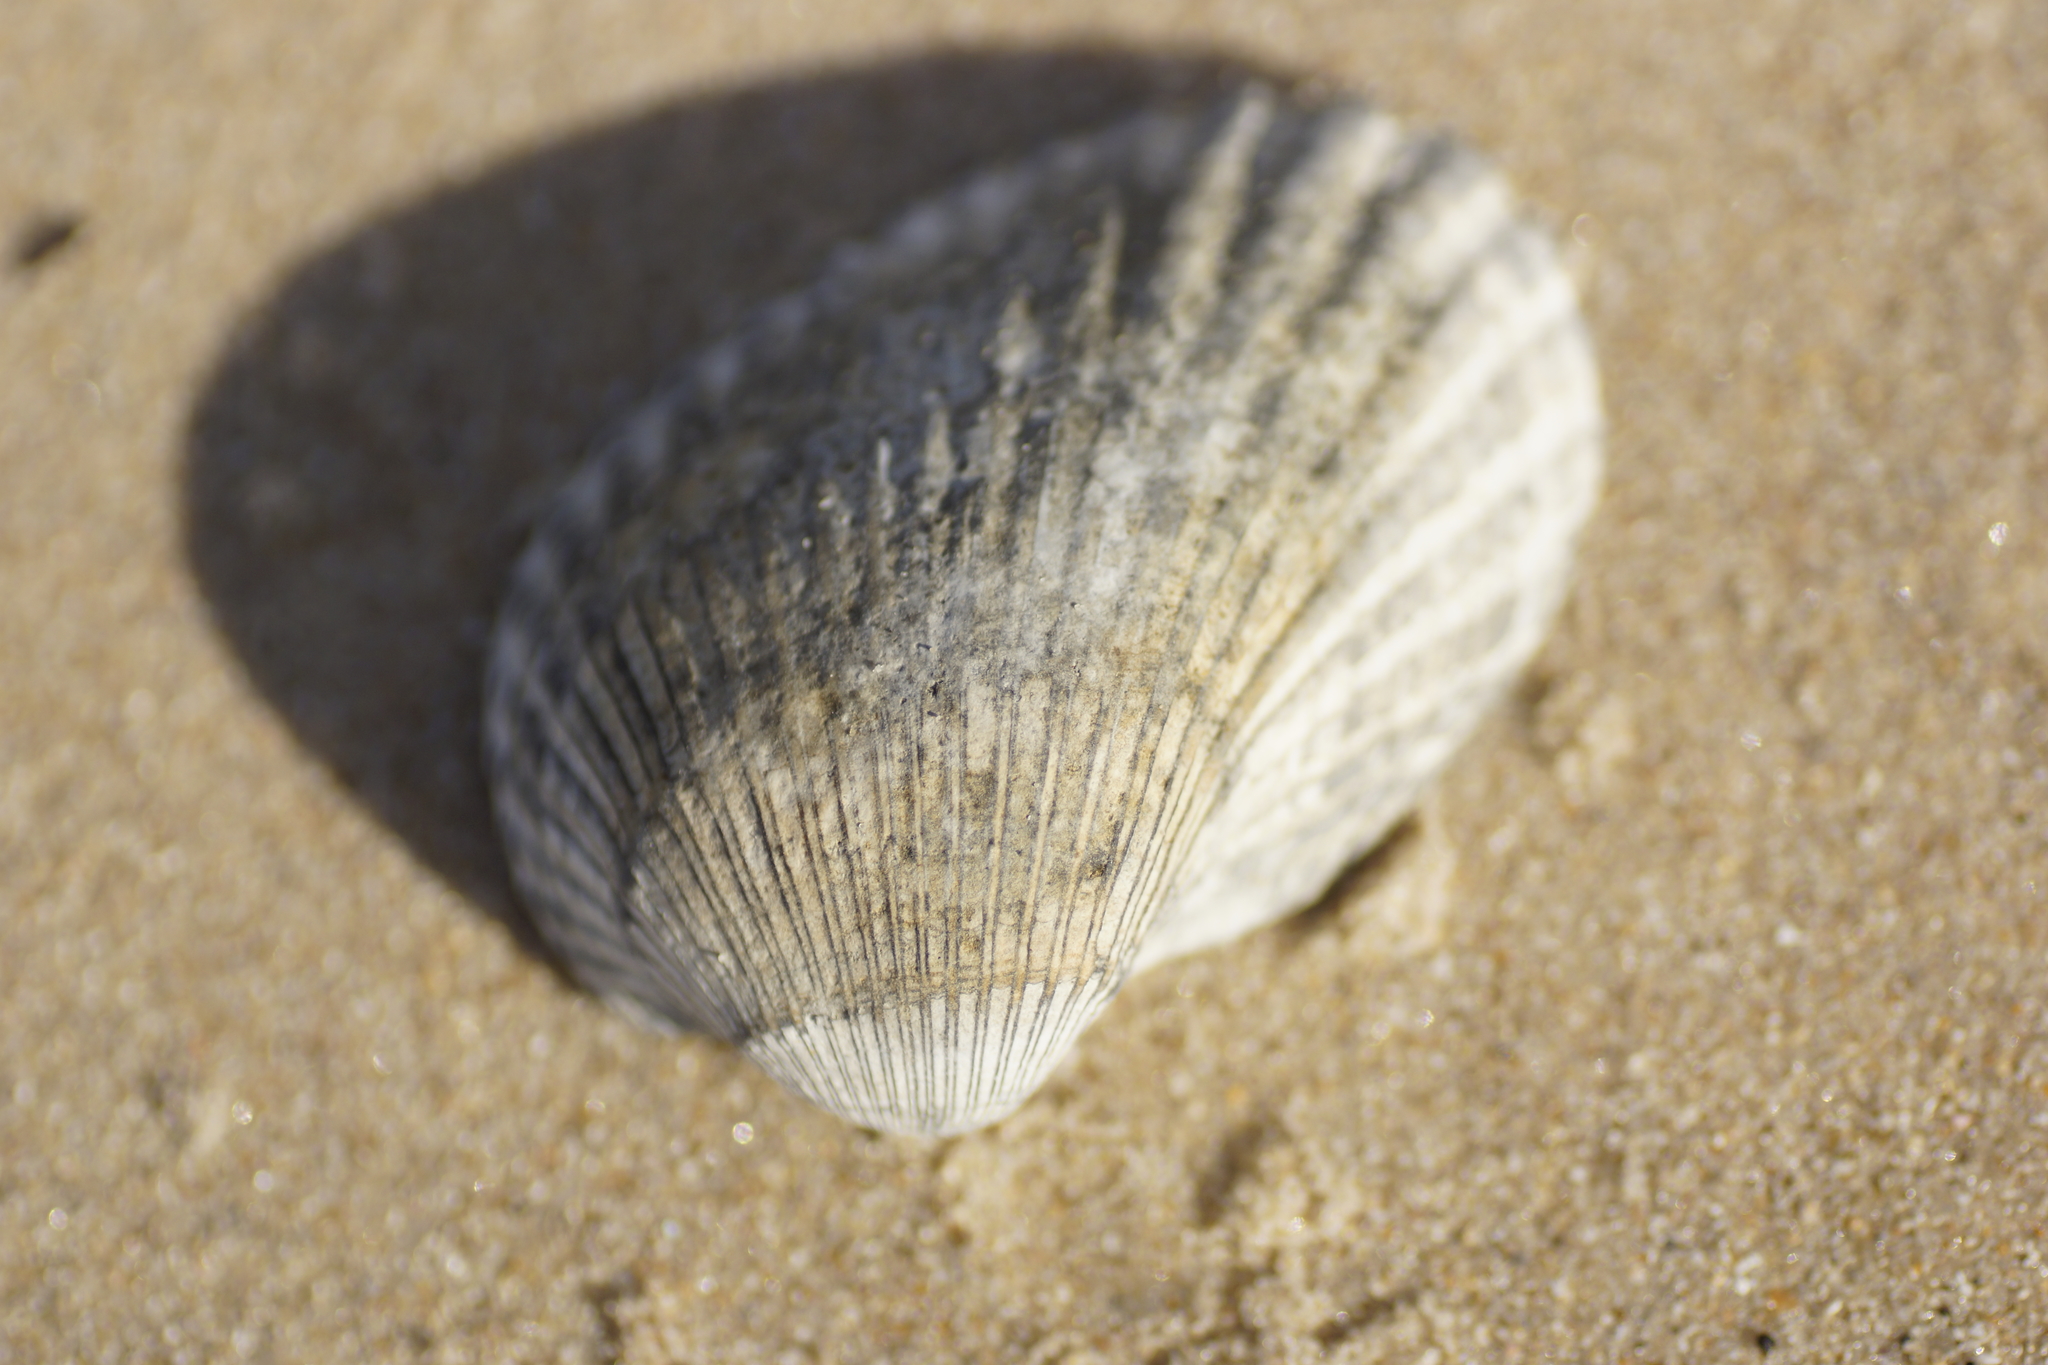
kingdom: Animalia
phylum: Mollusca
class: Bivalvia
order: Arcida
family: Arcidae
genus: Anadara
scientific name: Anadara trapezia
